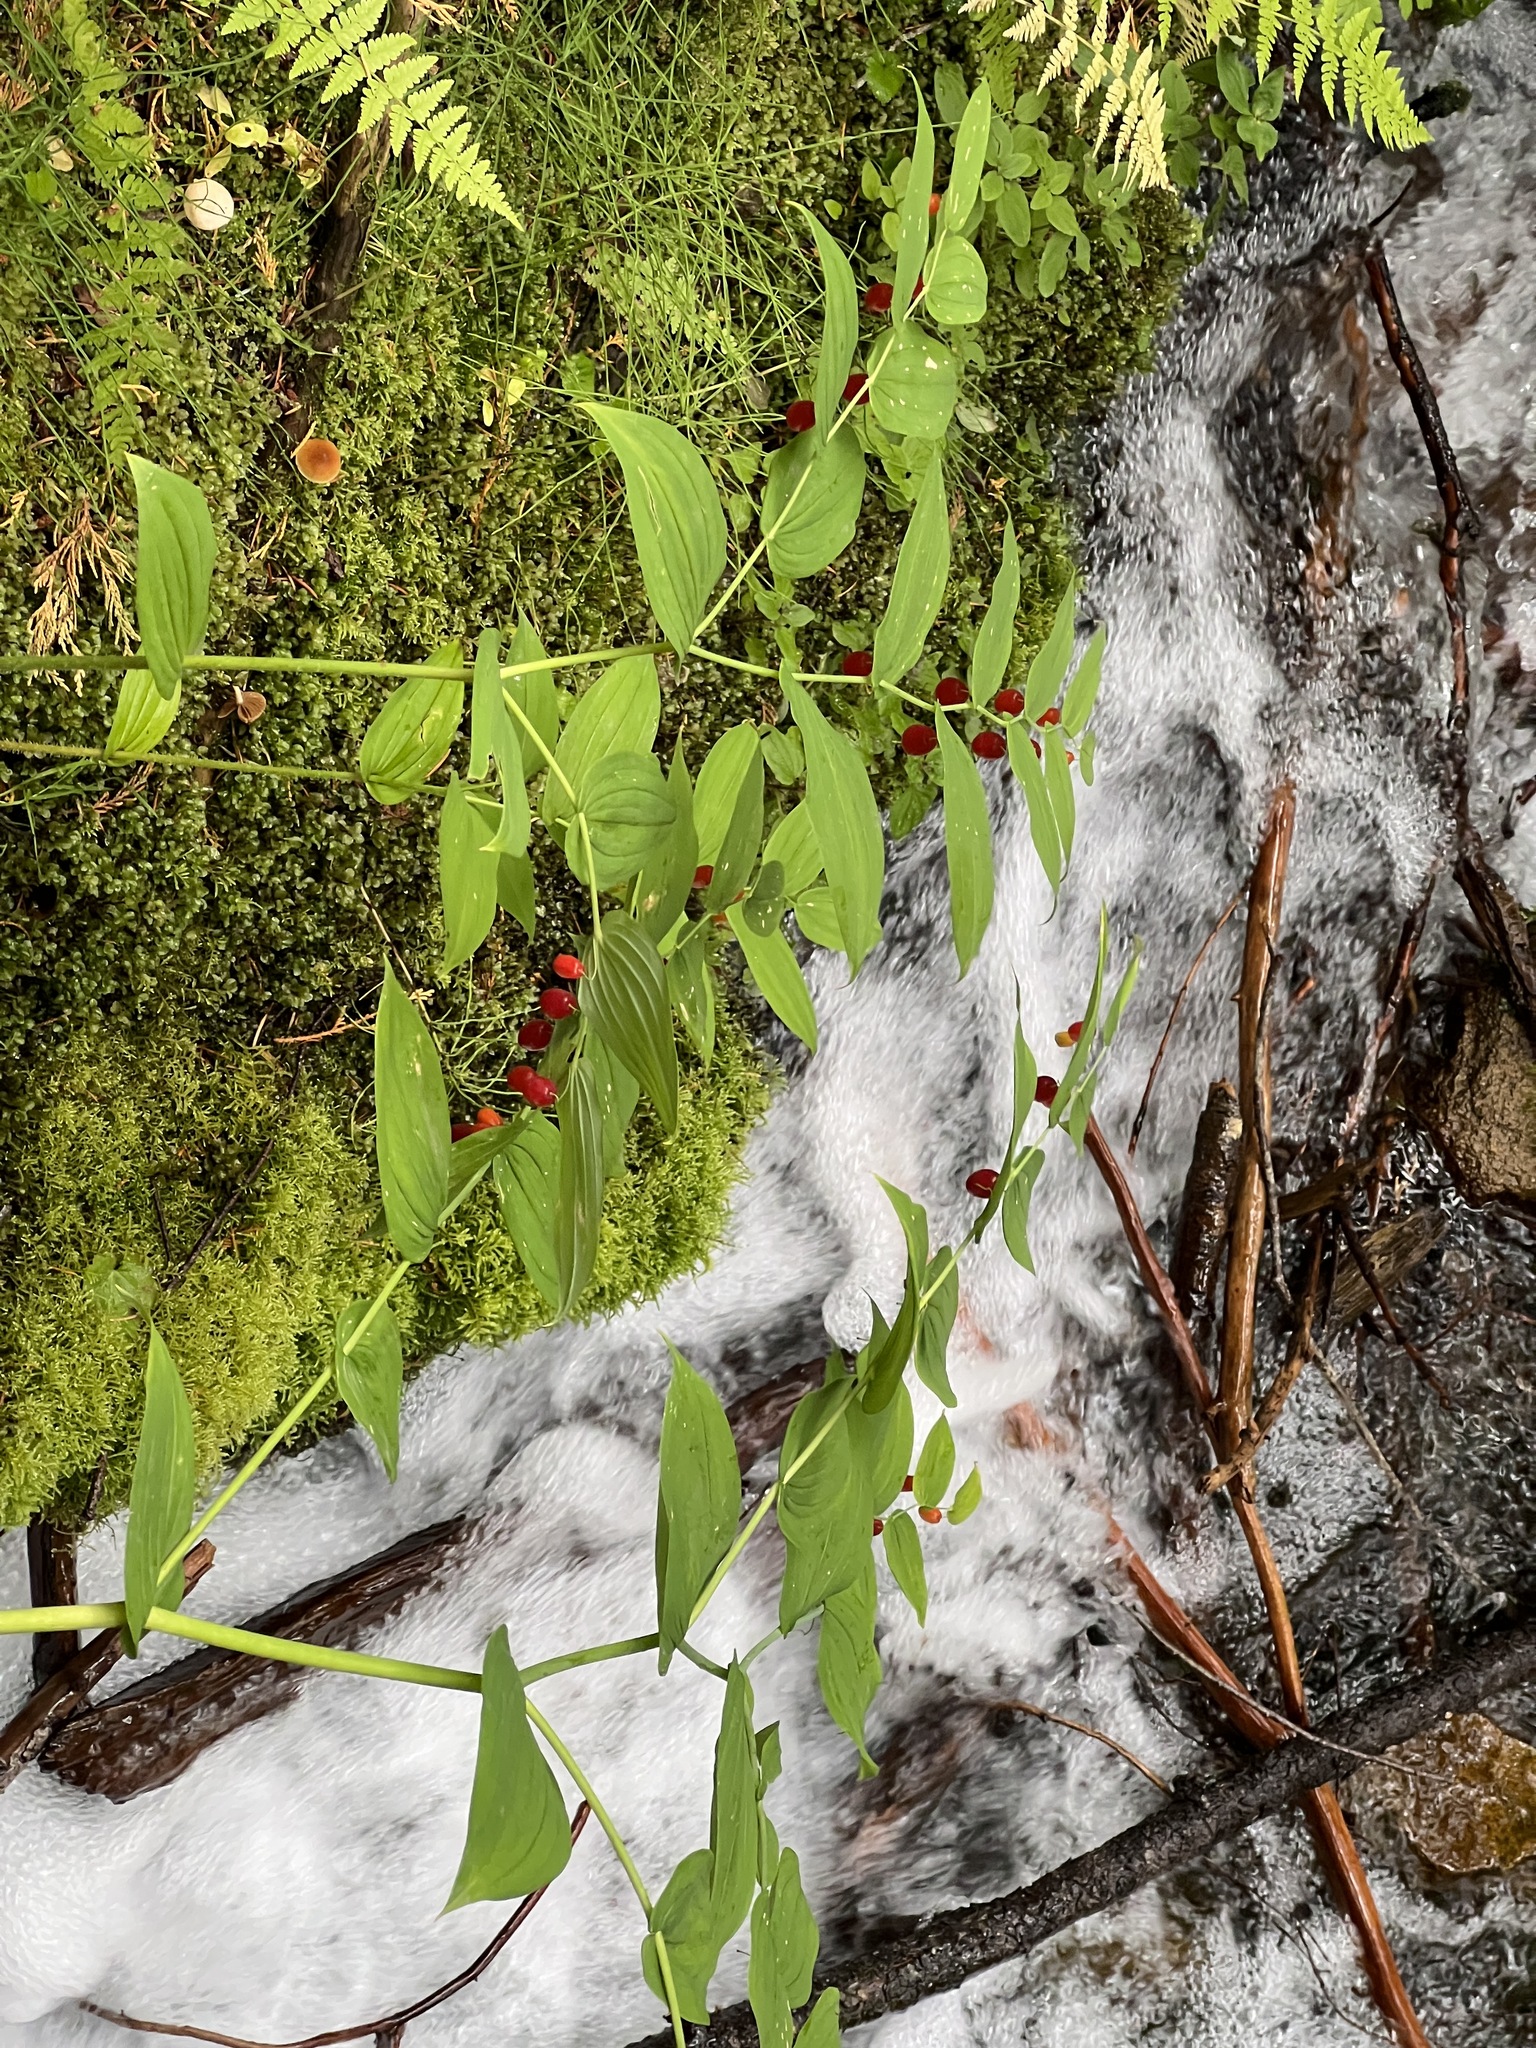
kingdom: Plantae
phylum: Tracheophyta
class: Liliopsida
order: Liliales
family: Liliaceae
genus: Streptopus
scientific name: Streptopus amplexifolius
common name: Clasp twisted stalk
